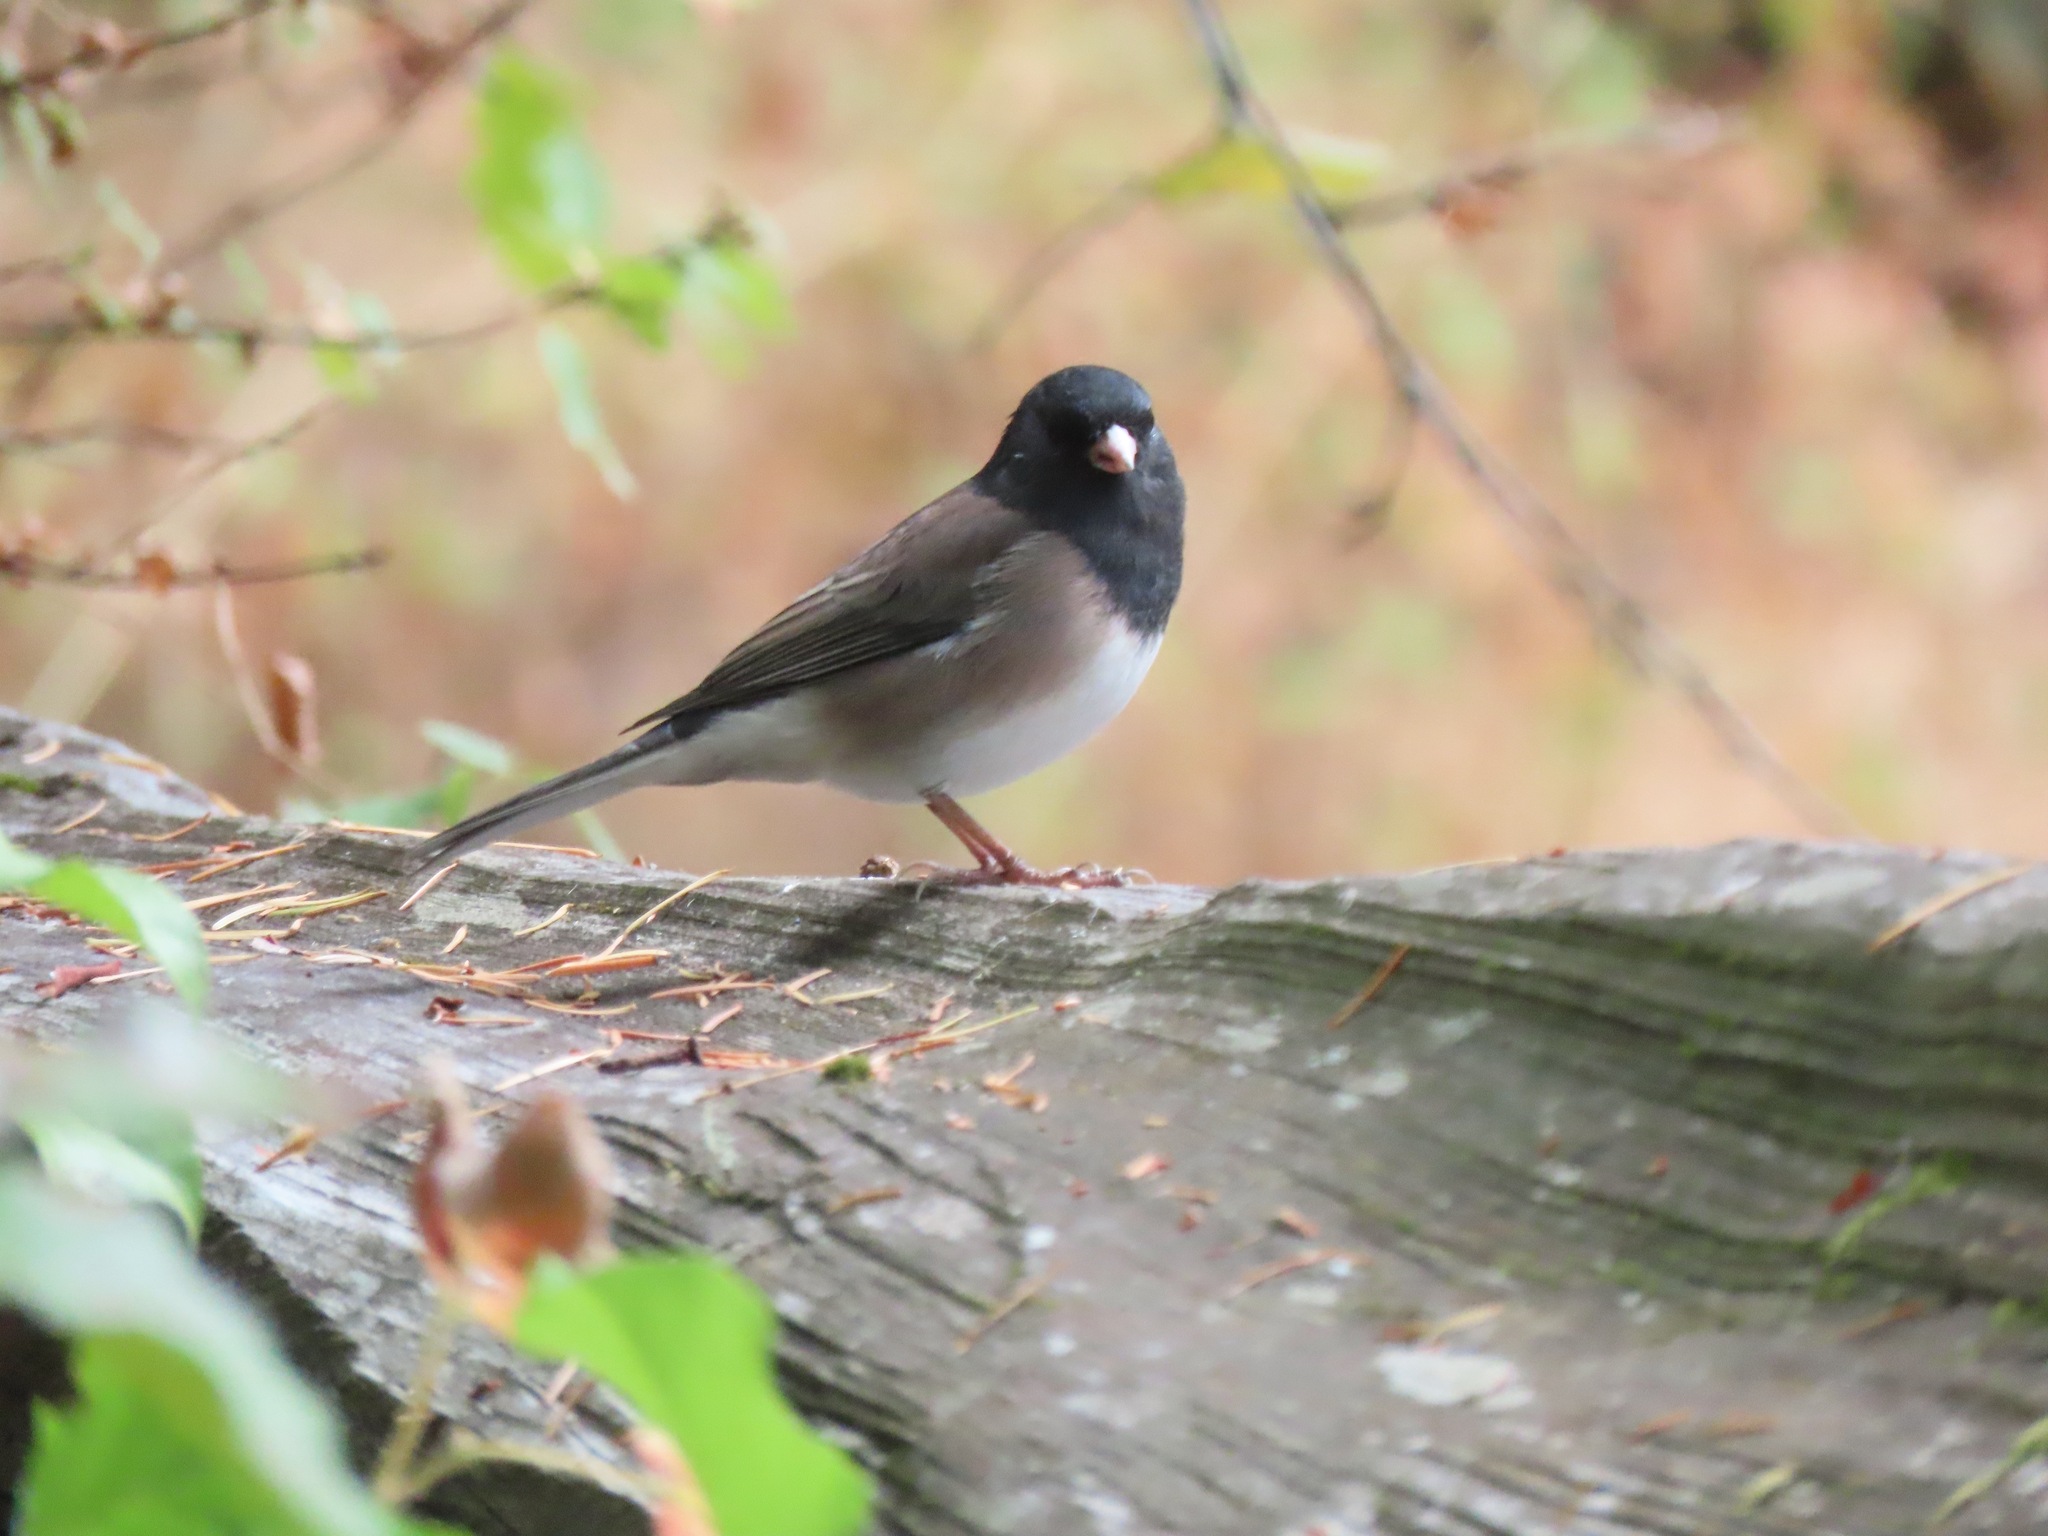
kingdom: Animalia
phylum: Chordata
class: Aves
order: Passeriformes
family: Passerellidae
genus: Junco
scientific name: Junco hyemalis
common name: Dark-eyed junco
